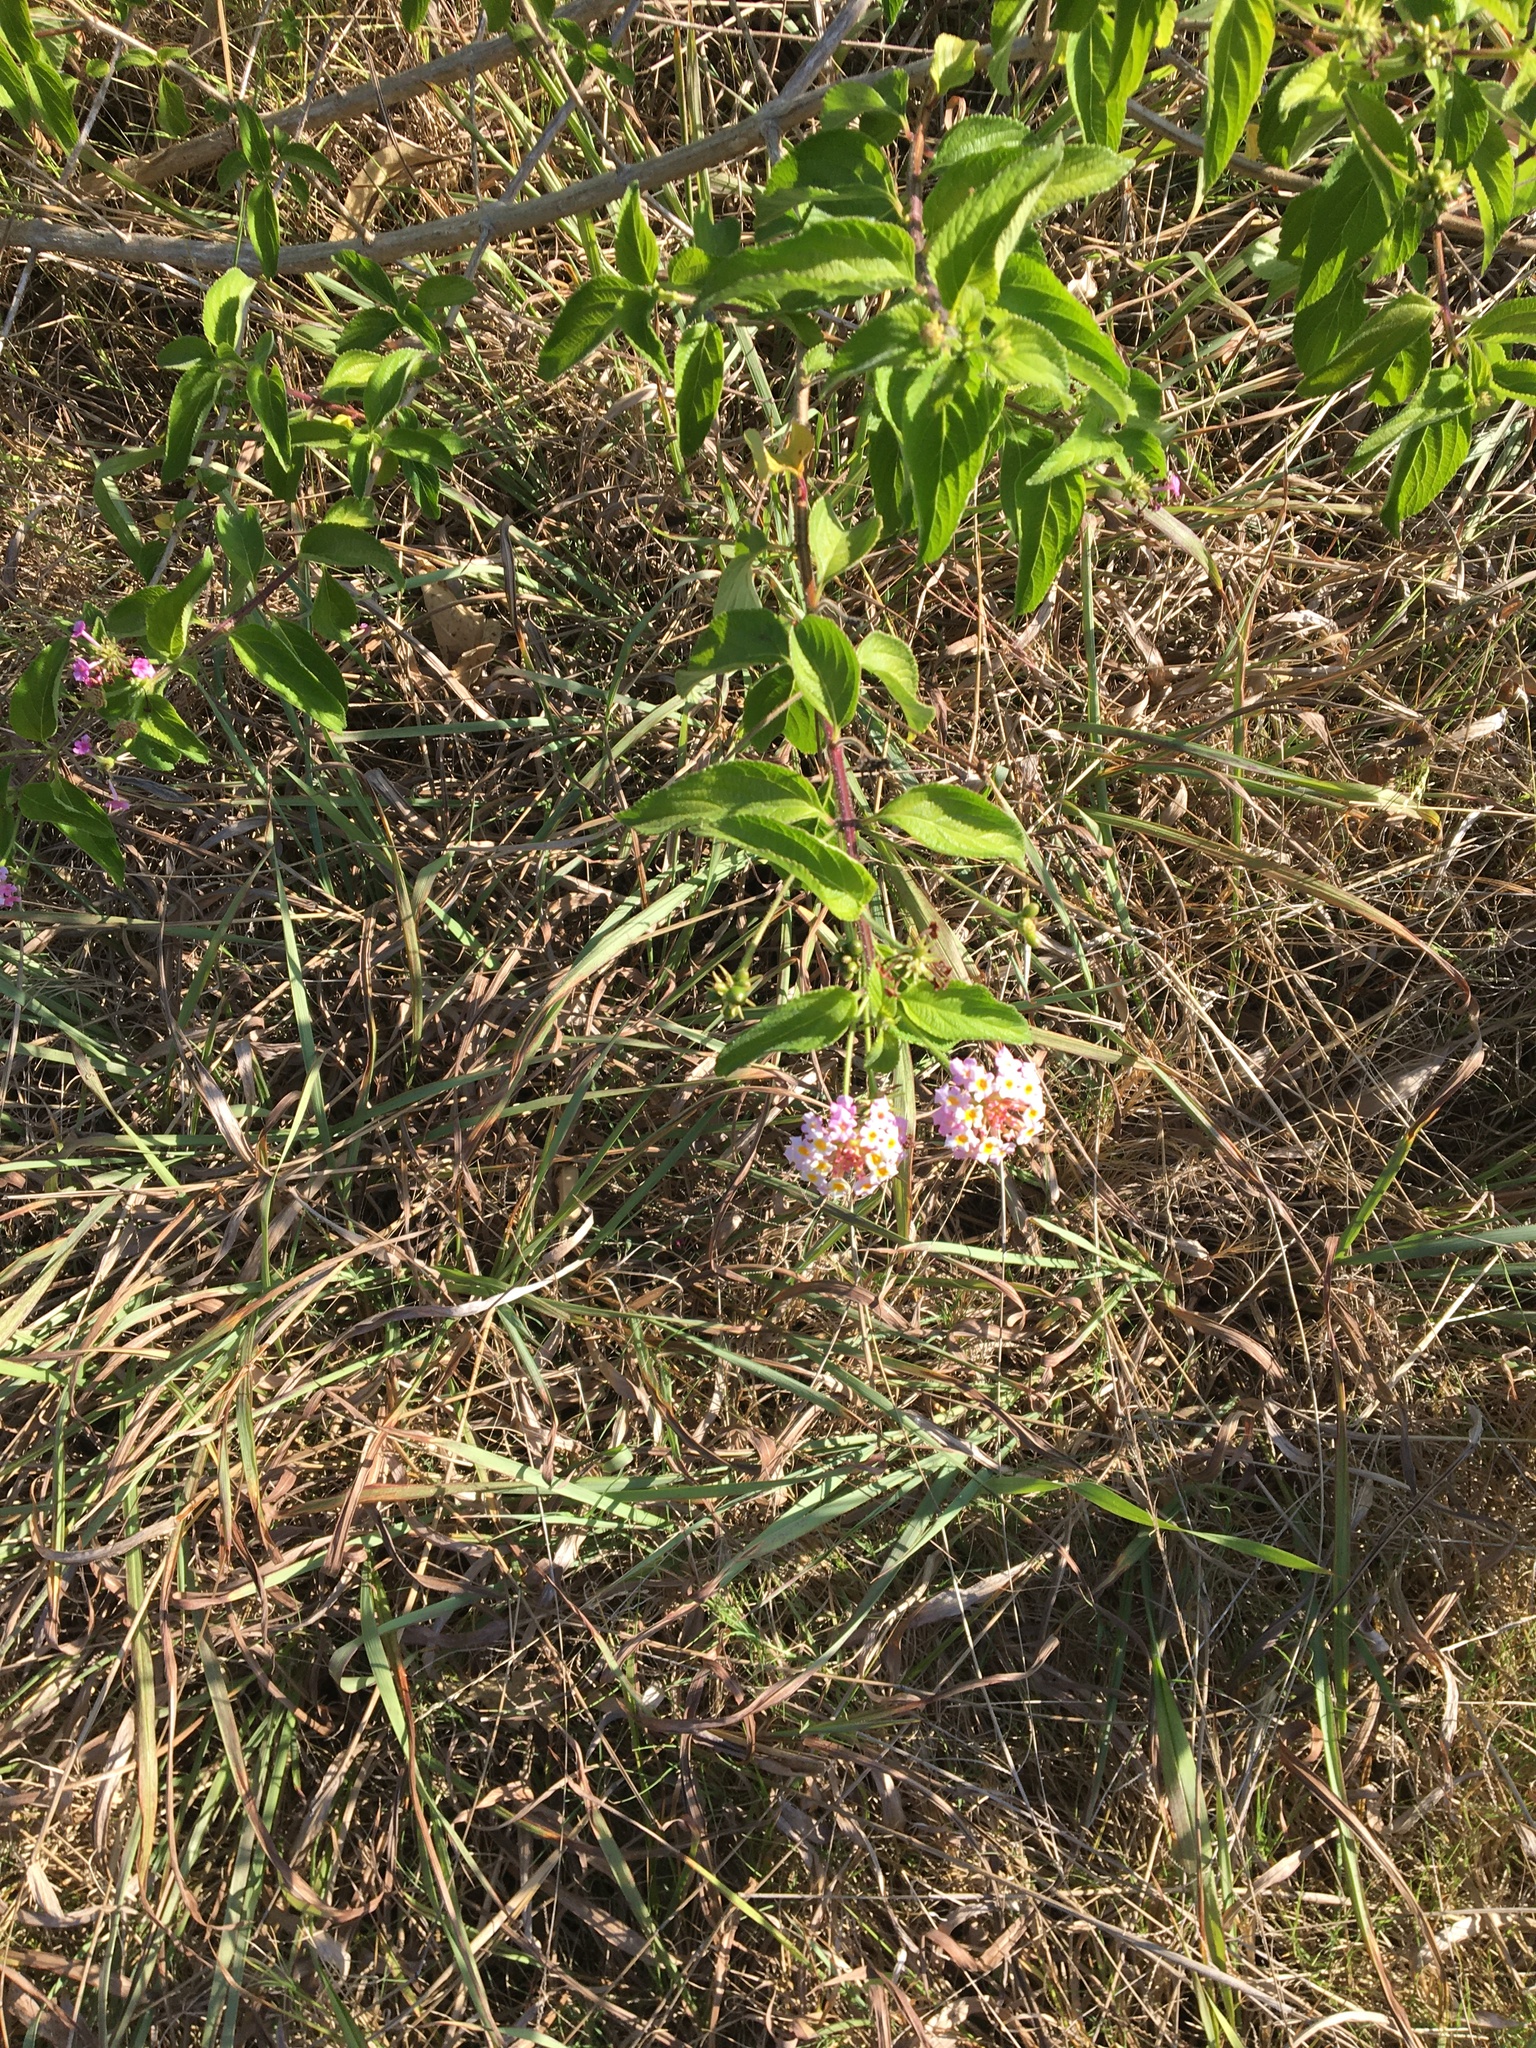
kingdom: Plantae
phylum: Tracheophyta
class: Magnoliopsida
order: Lamiales
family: Verbenaceae
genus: Lantana
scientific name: Lantana camara
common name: Lantana
